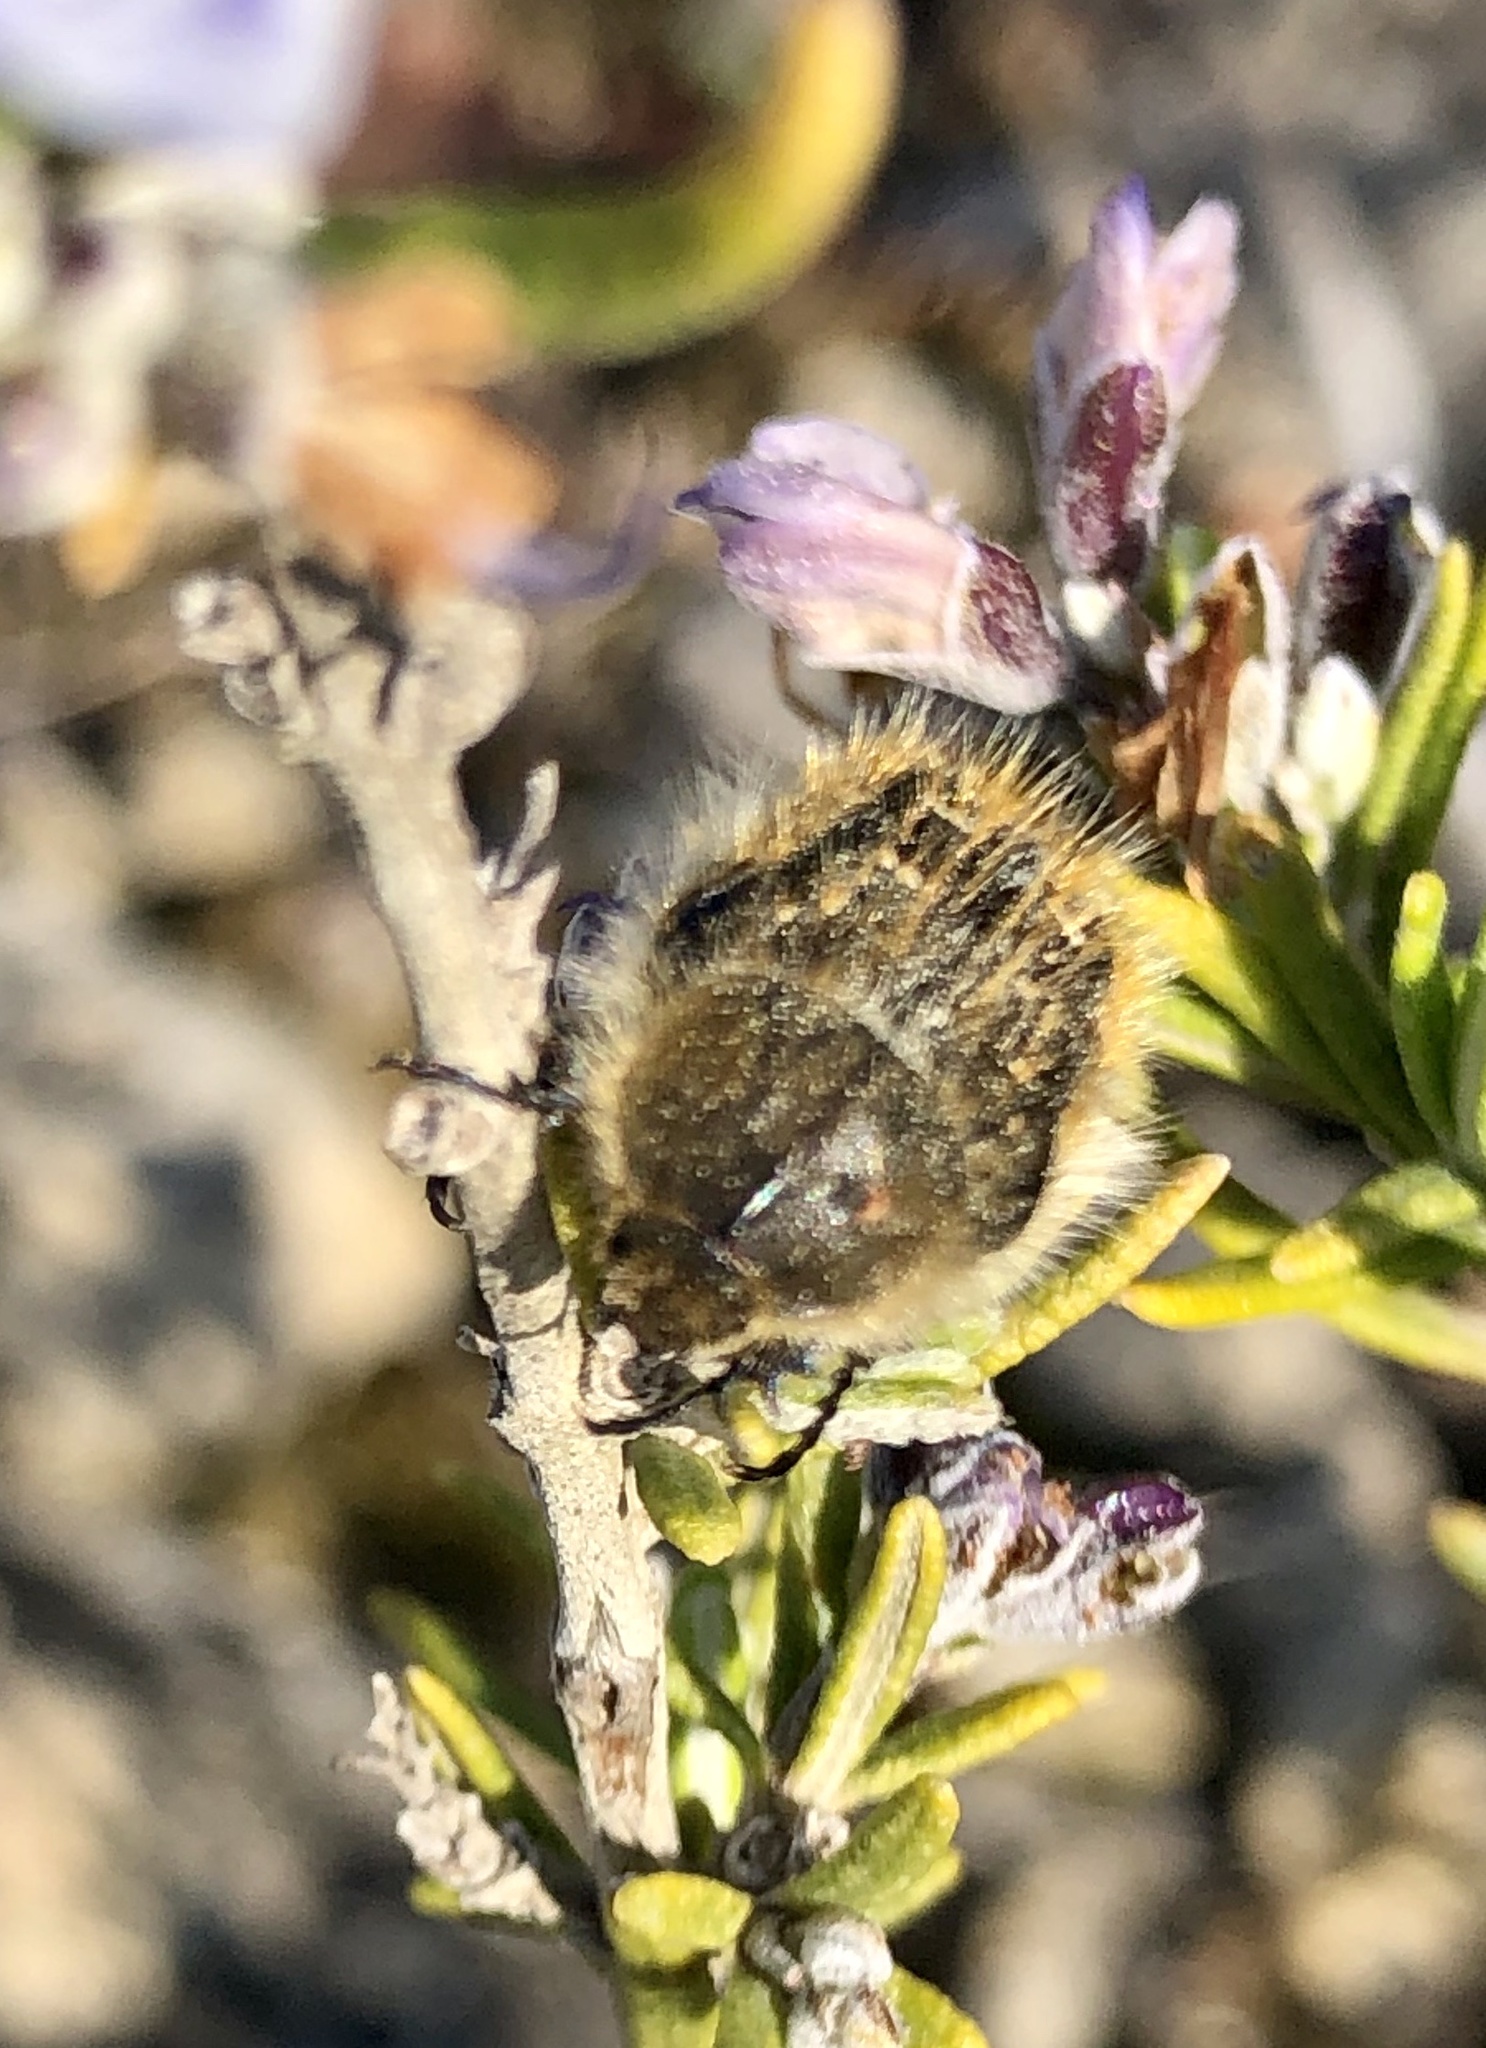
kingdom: Animalia
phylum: Arthropoda
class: Insecta
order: Coleoptera
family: Scarabaeidae
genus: Tropinota
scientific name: Tropinota squalida
